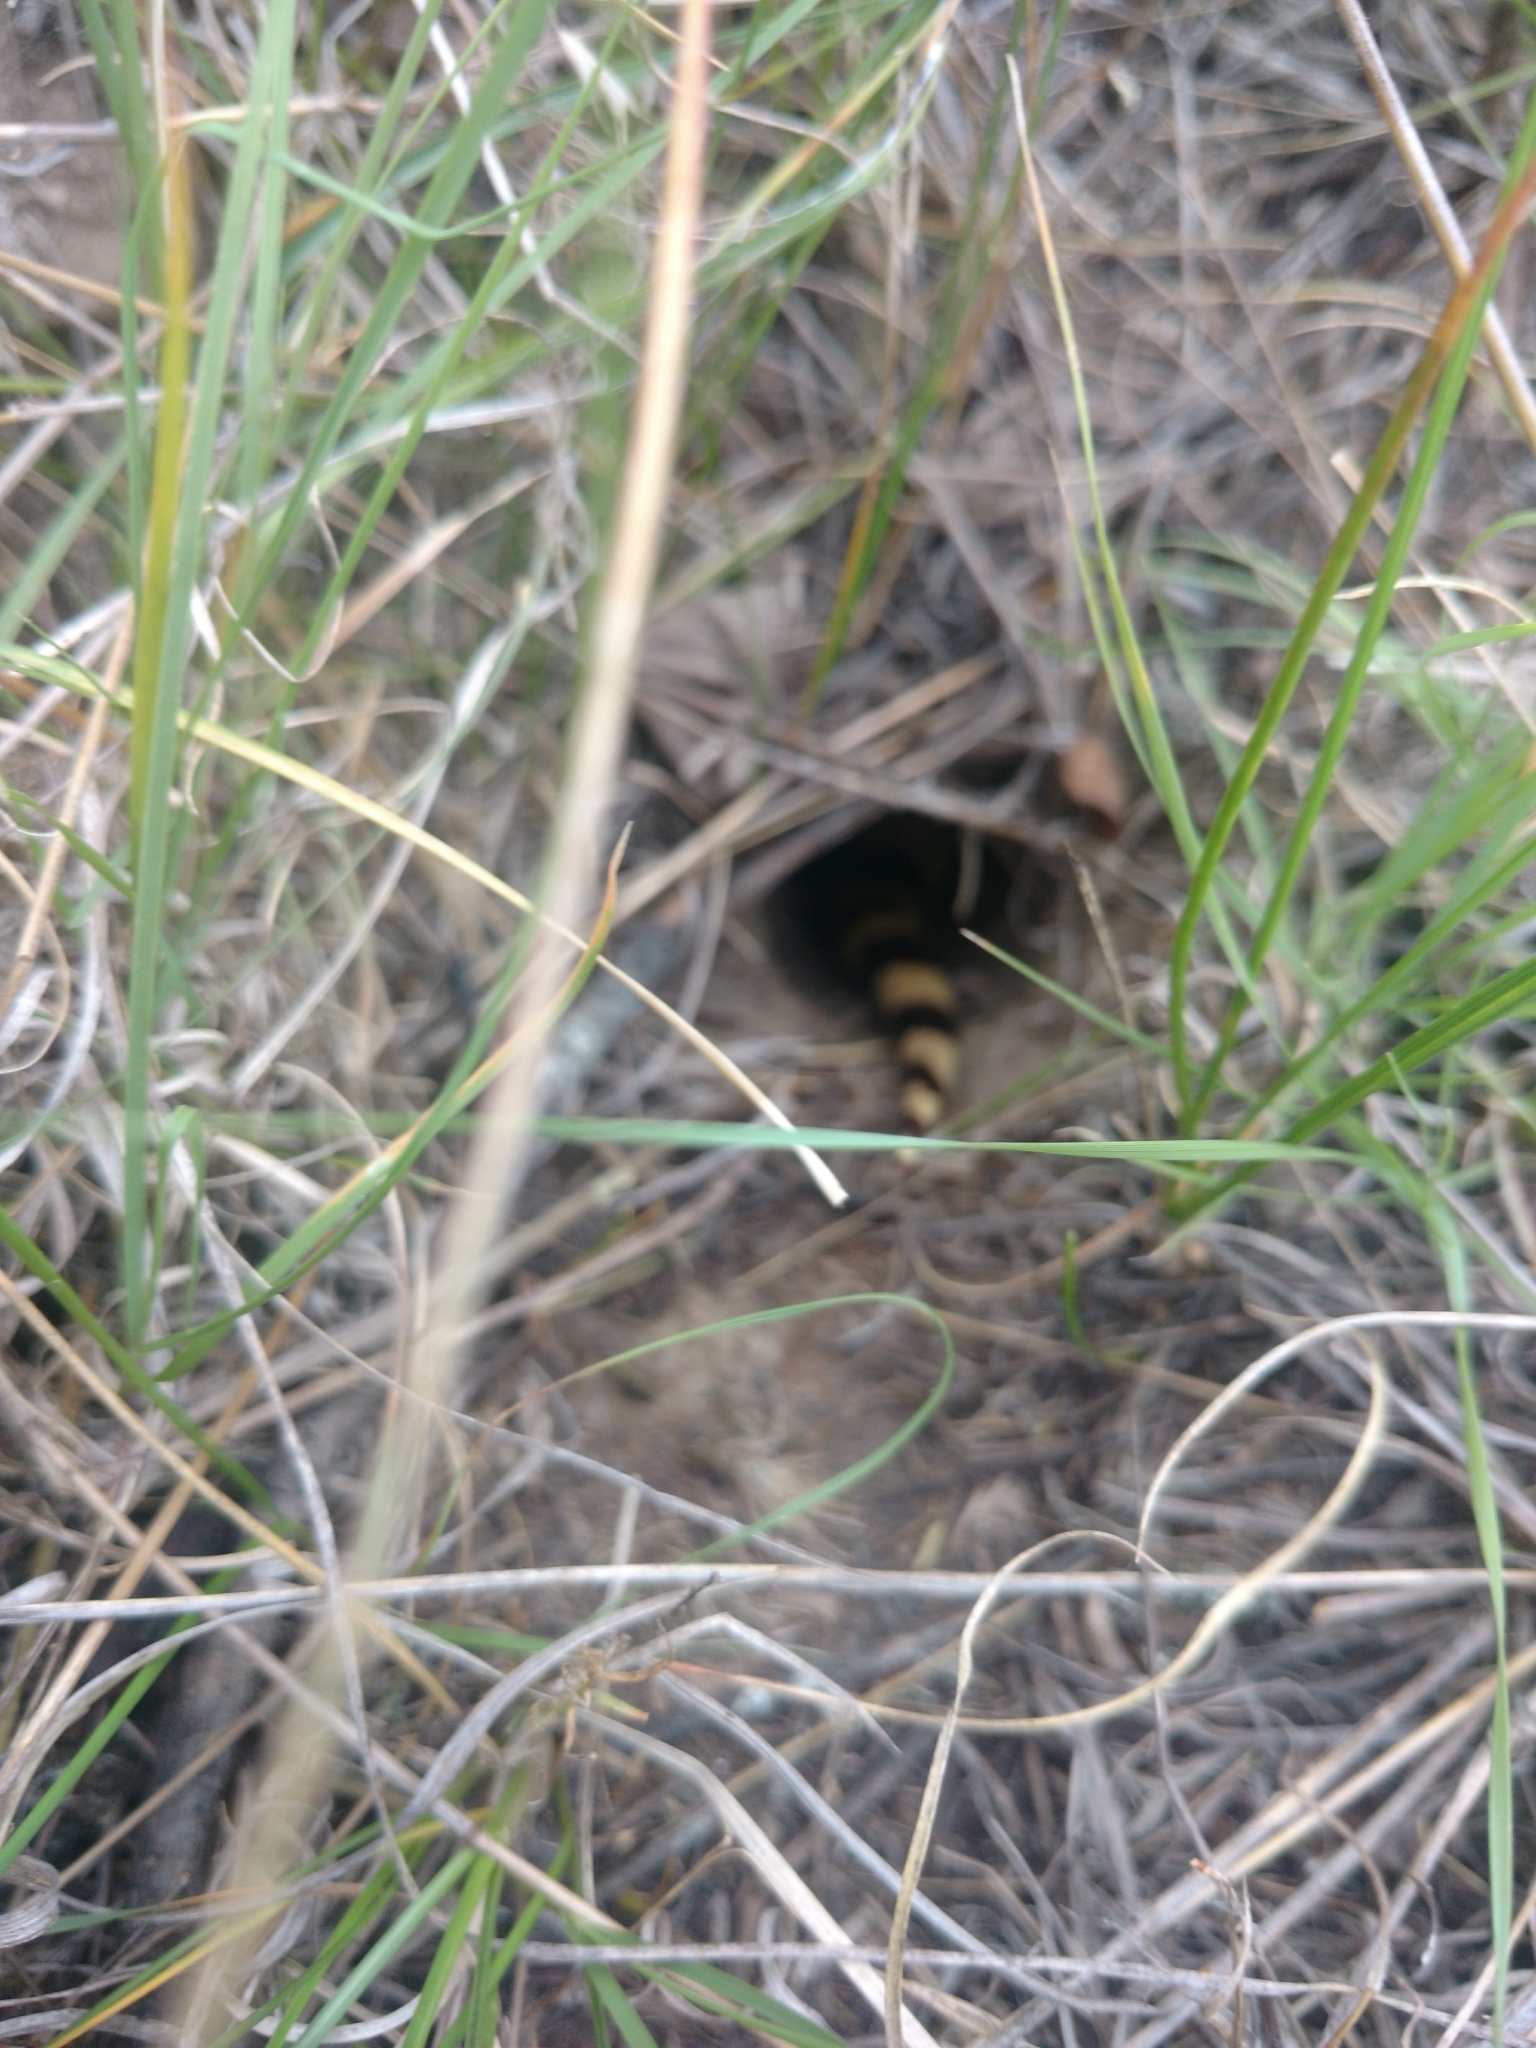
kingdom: Animalia
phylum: Chordata
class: Squamata
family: Colubridae
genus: Pituophis
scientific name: Pituophis catenifer
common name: Gopher snake
